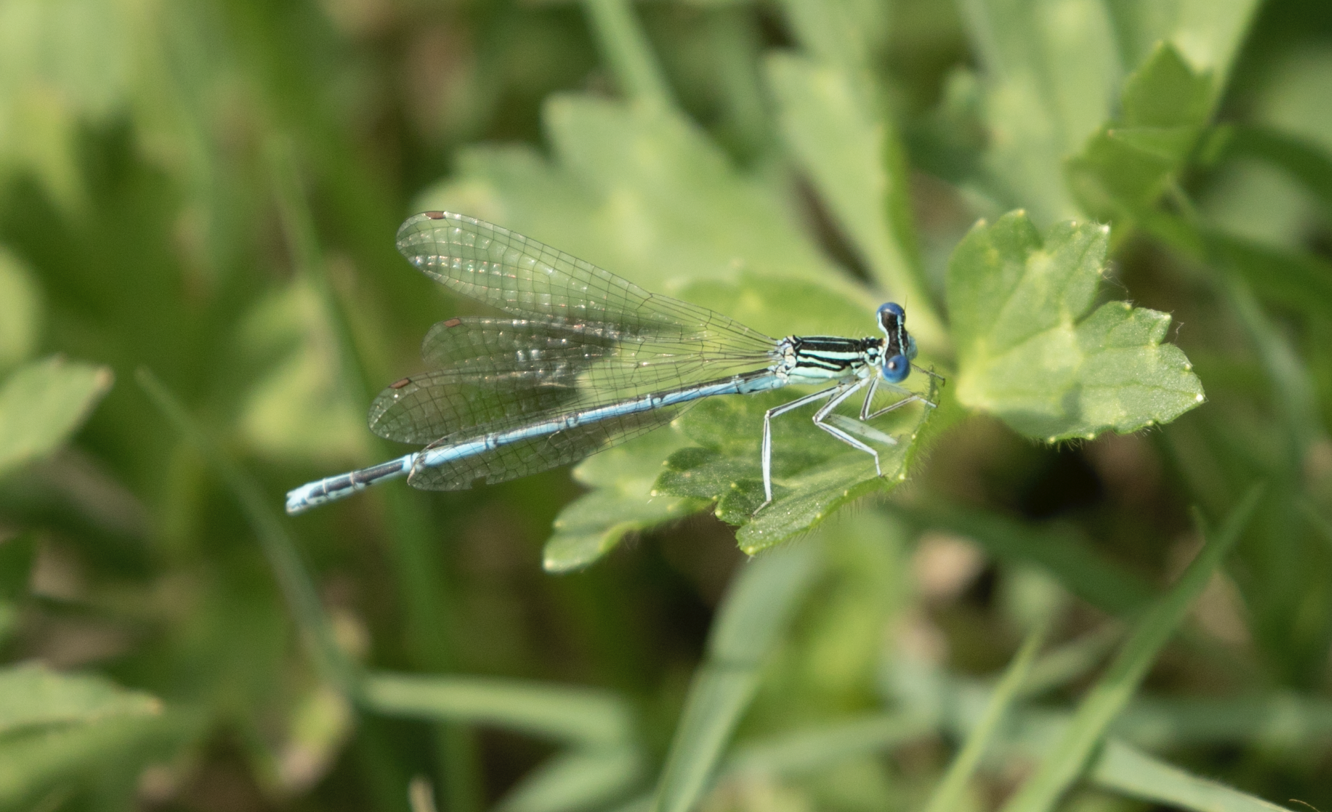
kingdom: Animalia
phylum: Arthropoda
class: Insecta
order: Odonata
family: Platycnemididae
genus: Platycnemis
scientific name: Platycnemis pennipes
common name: White-legged damselfly
